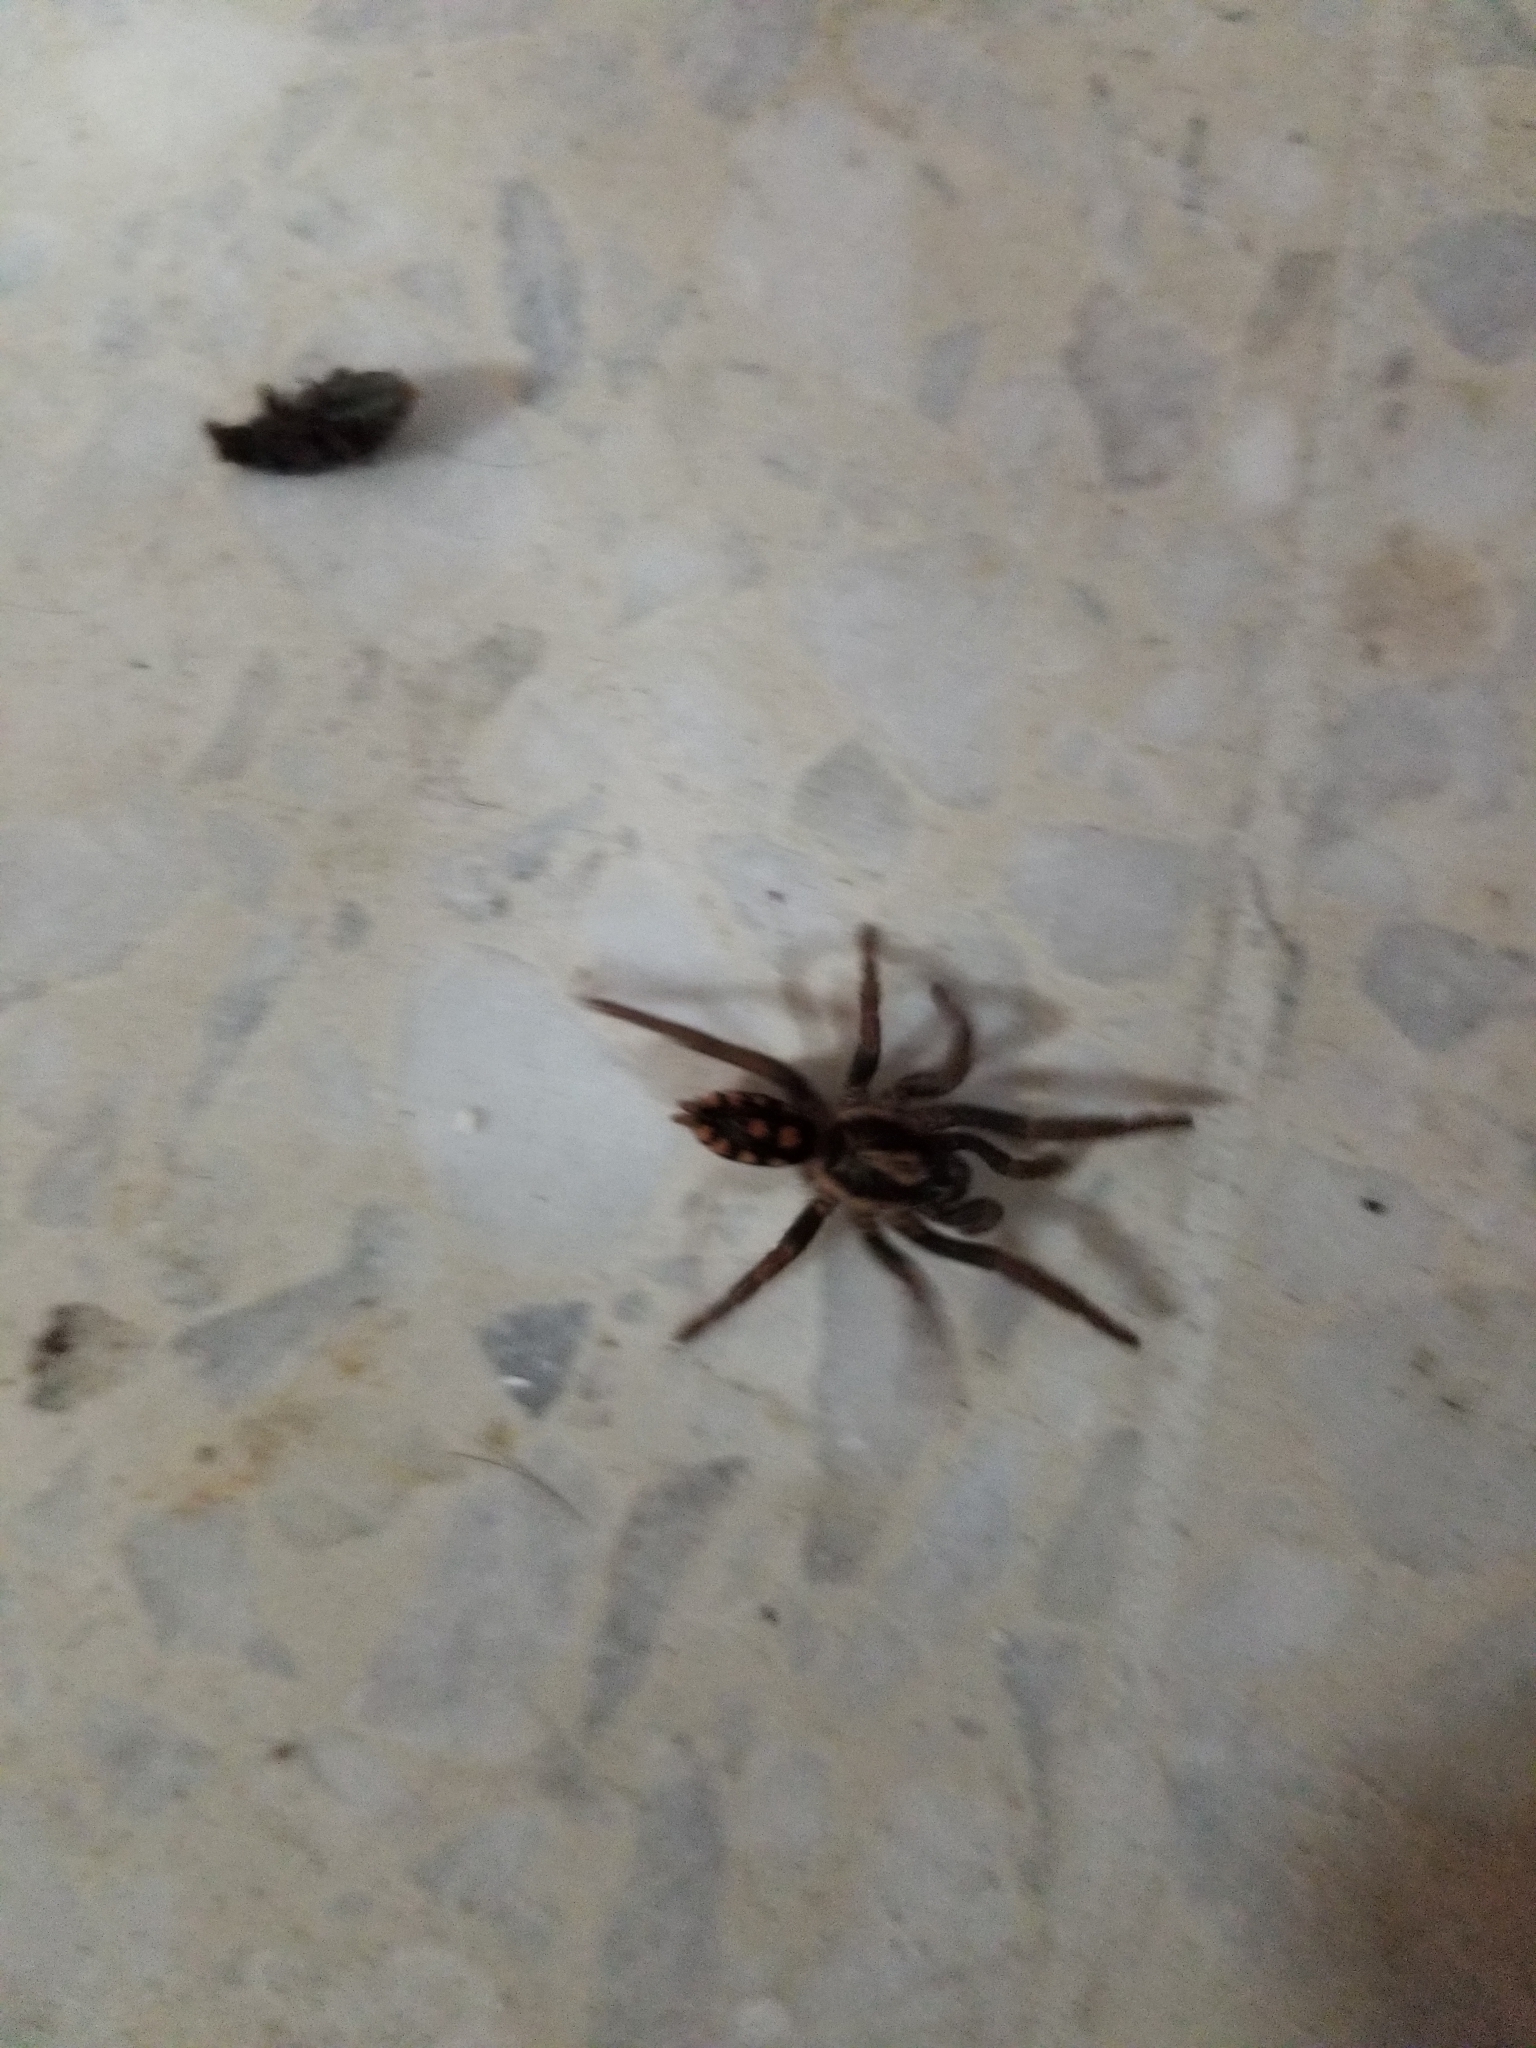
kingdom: Animalia
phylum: Arthropoda
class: Arachnida
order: Araneae
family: Theraphosidae
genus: Hapalopus
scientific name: Hapalopus formosus
